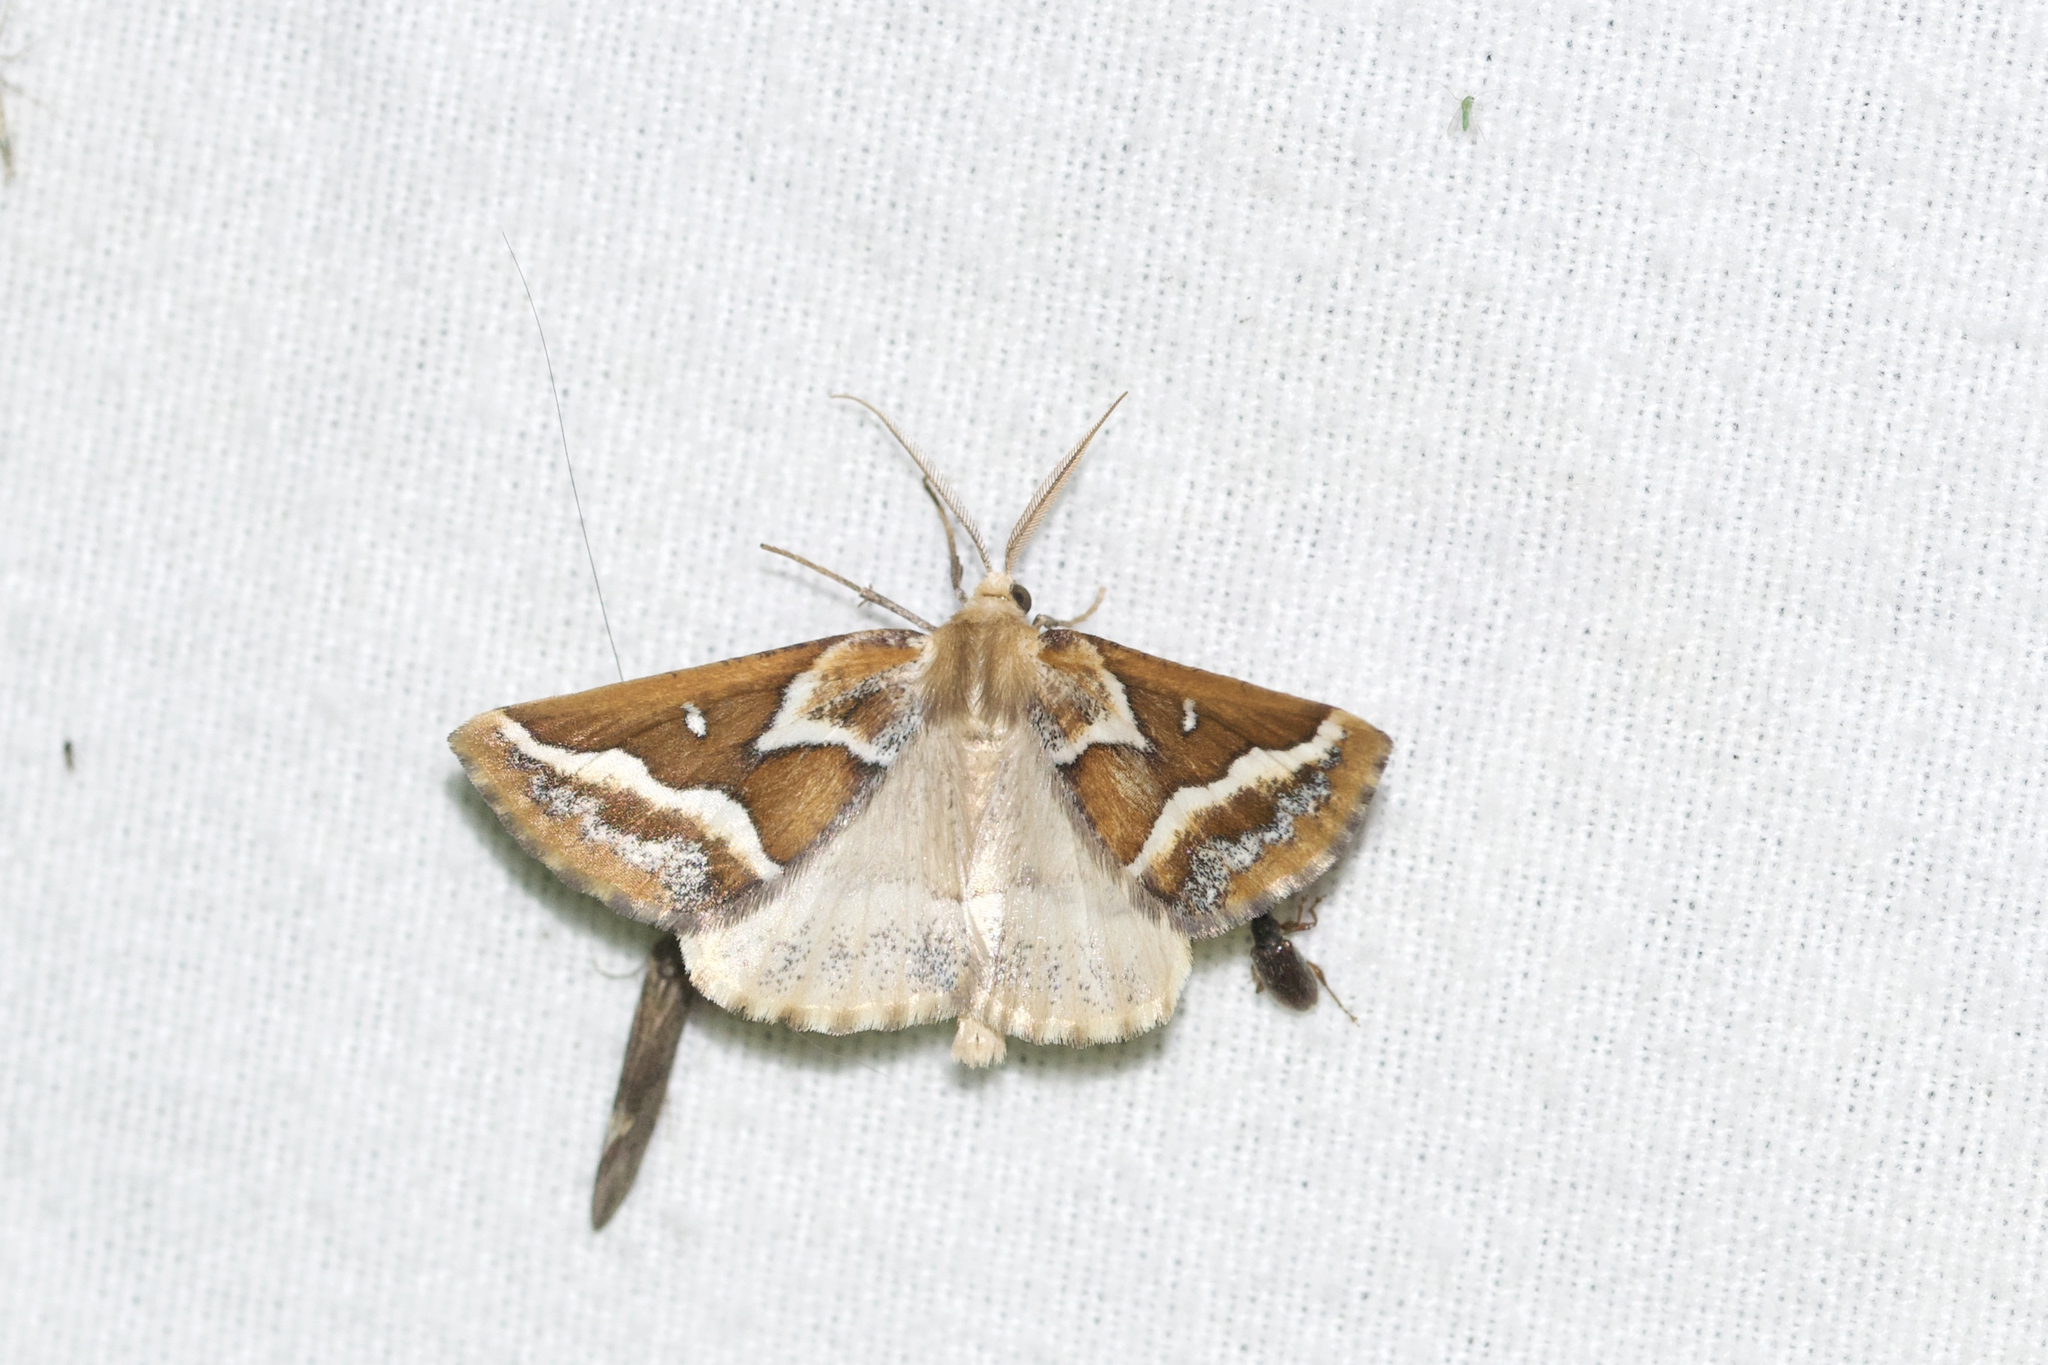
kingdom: Animalia
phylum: Arthropoda
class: Insecta
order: Lepidoptera
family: Geometridae
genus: Caripeta
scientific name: Caripeta angustiorata
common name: Brown pine looper
